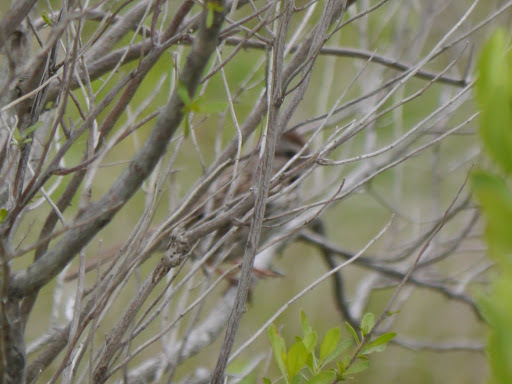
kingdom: Animalia
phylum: Chordata
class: Aves
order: Passeriformes
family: Passerellidae
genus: Melospiza
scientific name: Melospiza melodia
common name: Song sparrow
